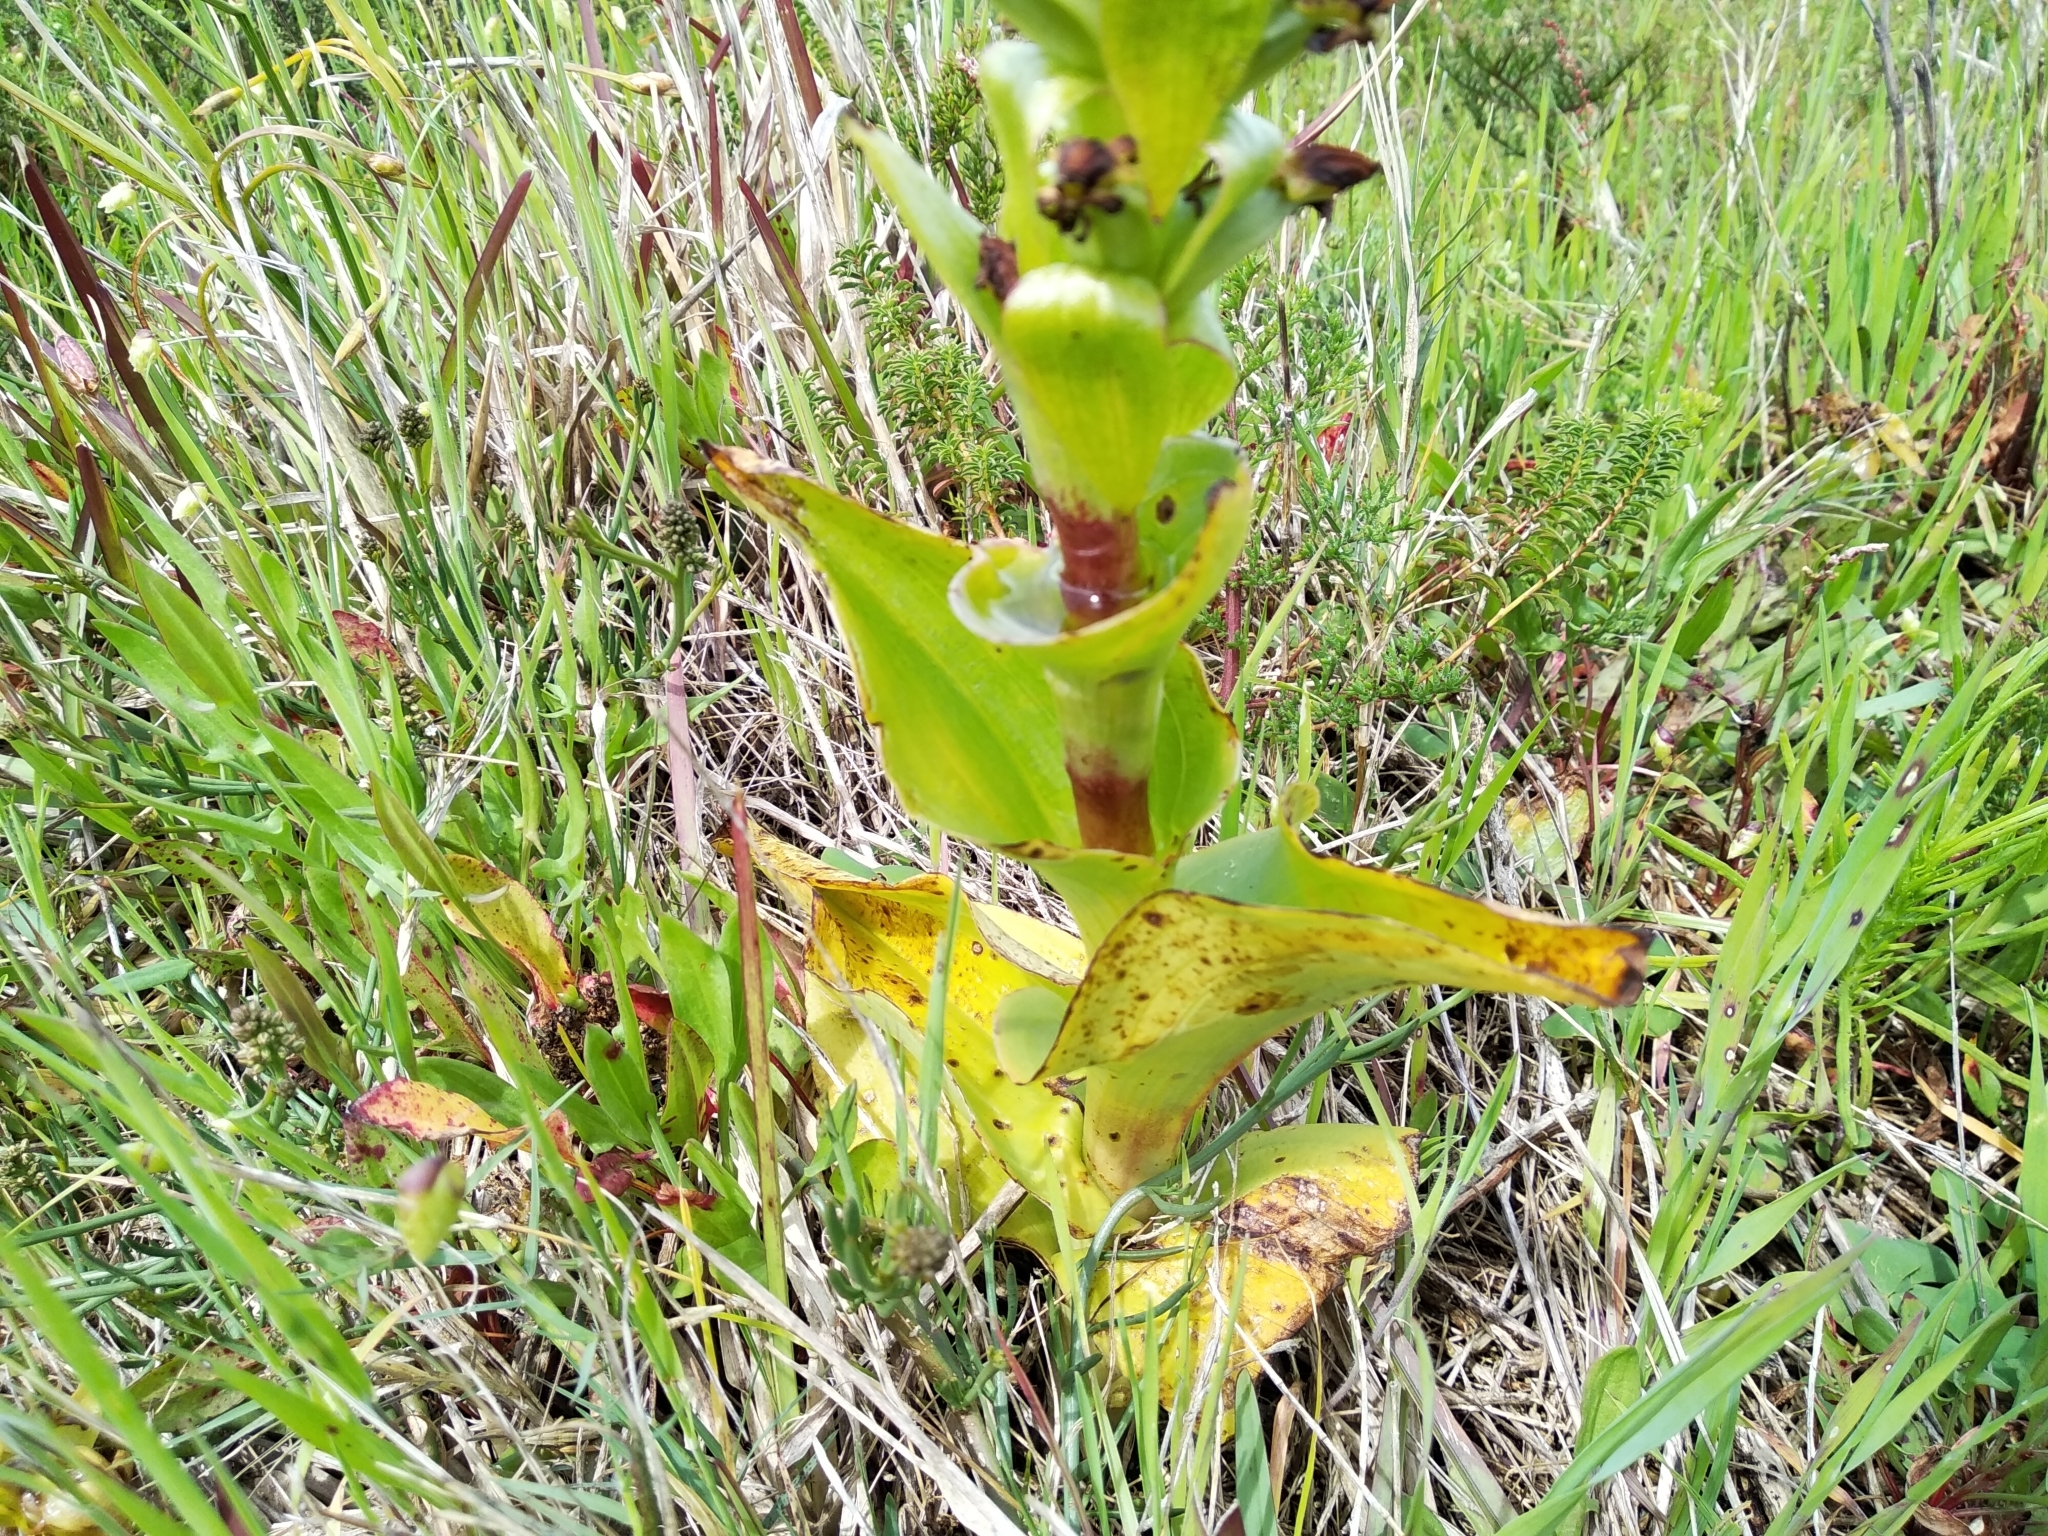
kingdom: Plantae
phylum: Tracheophyta
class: Liliopsida
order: Asparagales
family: Orchidaceae
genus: Satyrium
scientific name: Satyrium odorum
